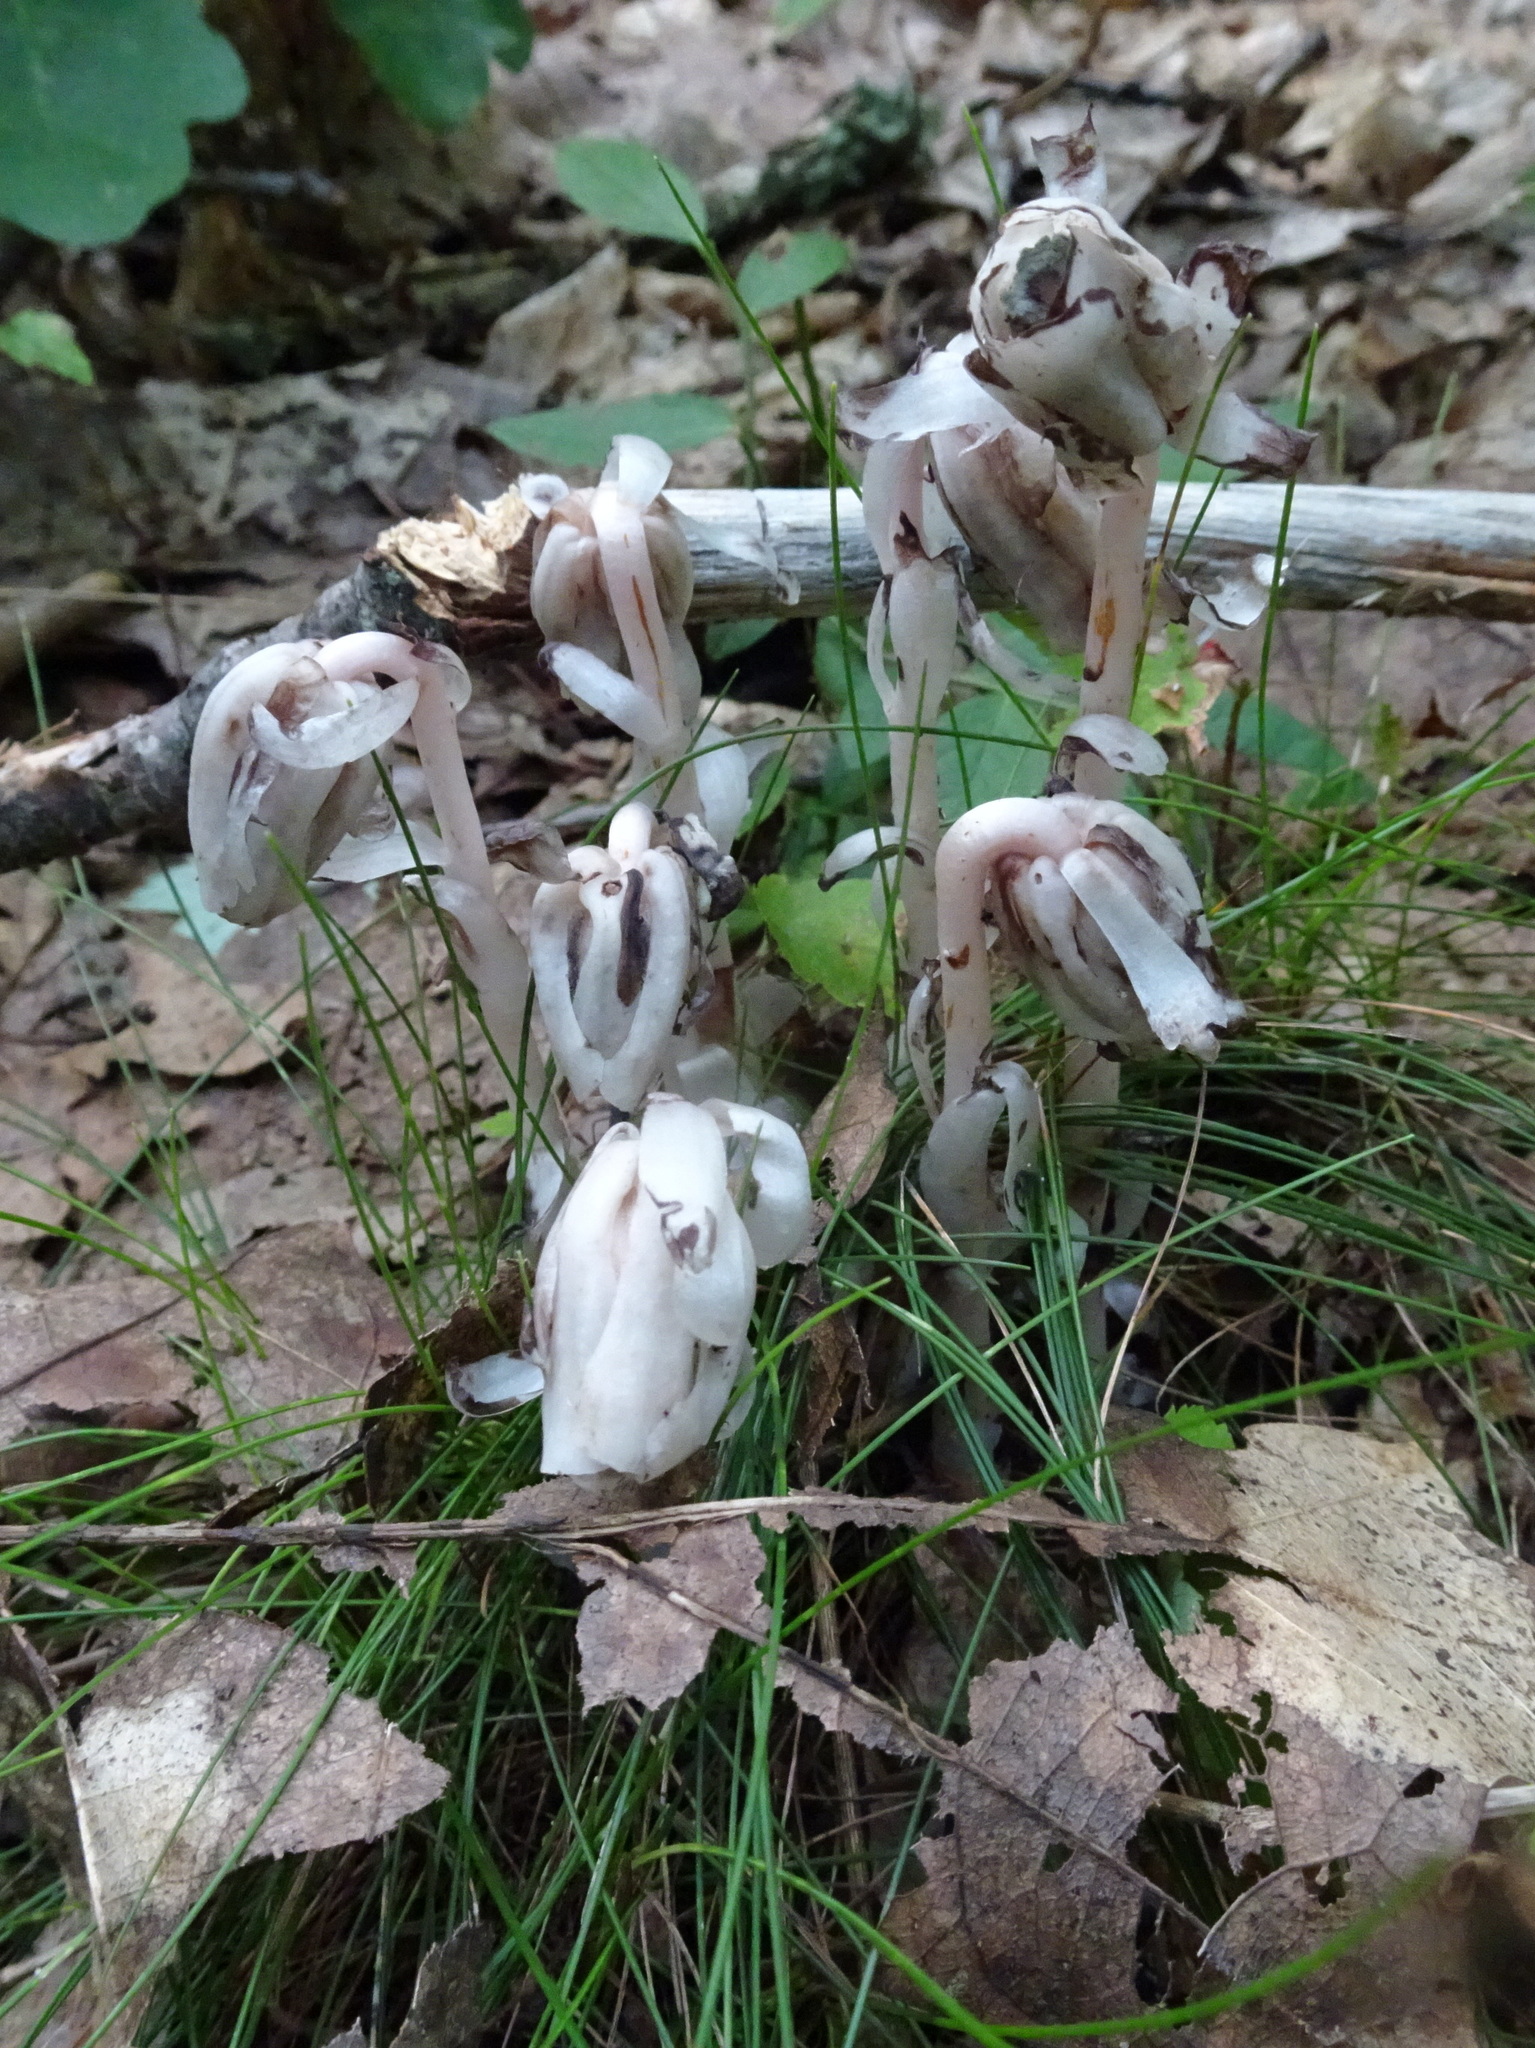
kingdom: Plantae
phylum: Tracheophyta
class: Magnoliopsida
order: Ericales
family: Ericaceae
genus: Monotropa
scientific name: Monotropa uniflora
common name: Convulsion root
